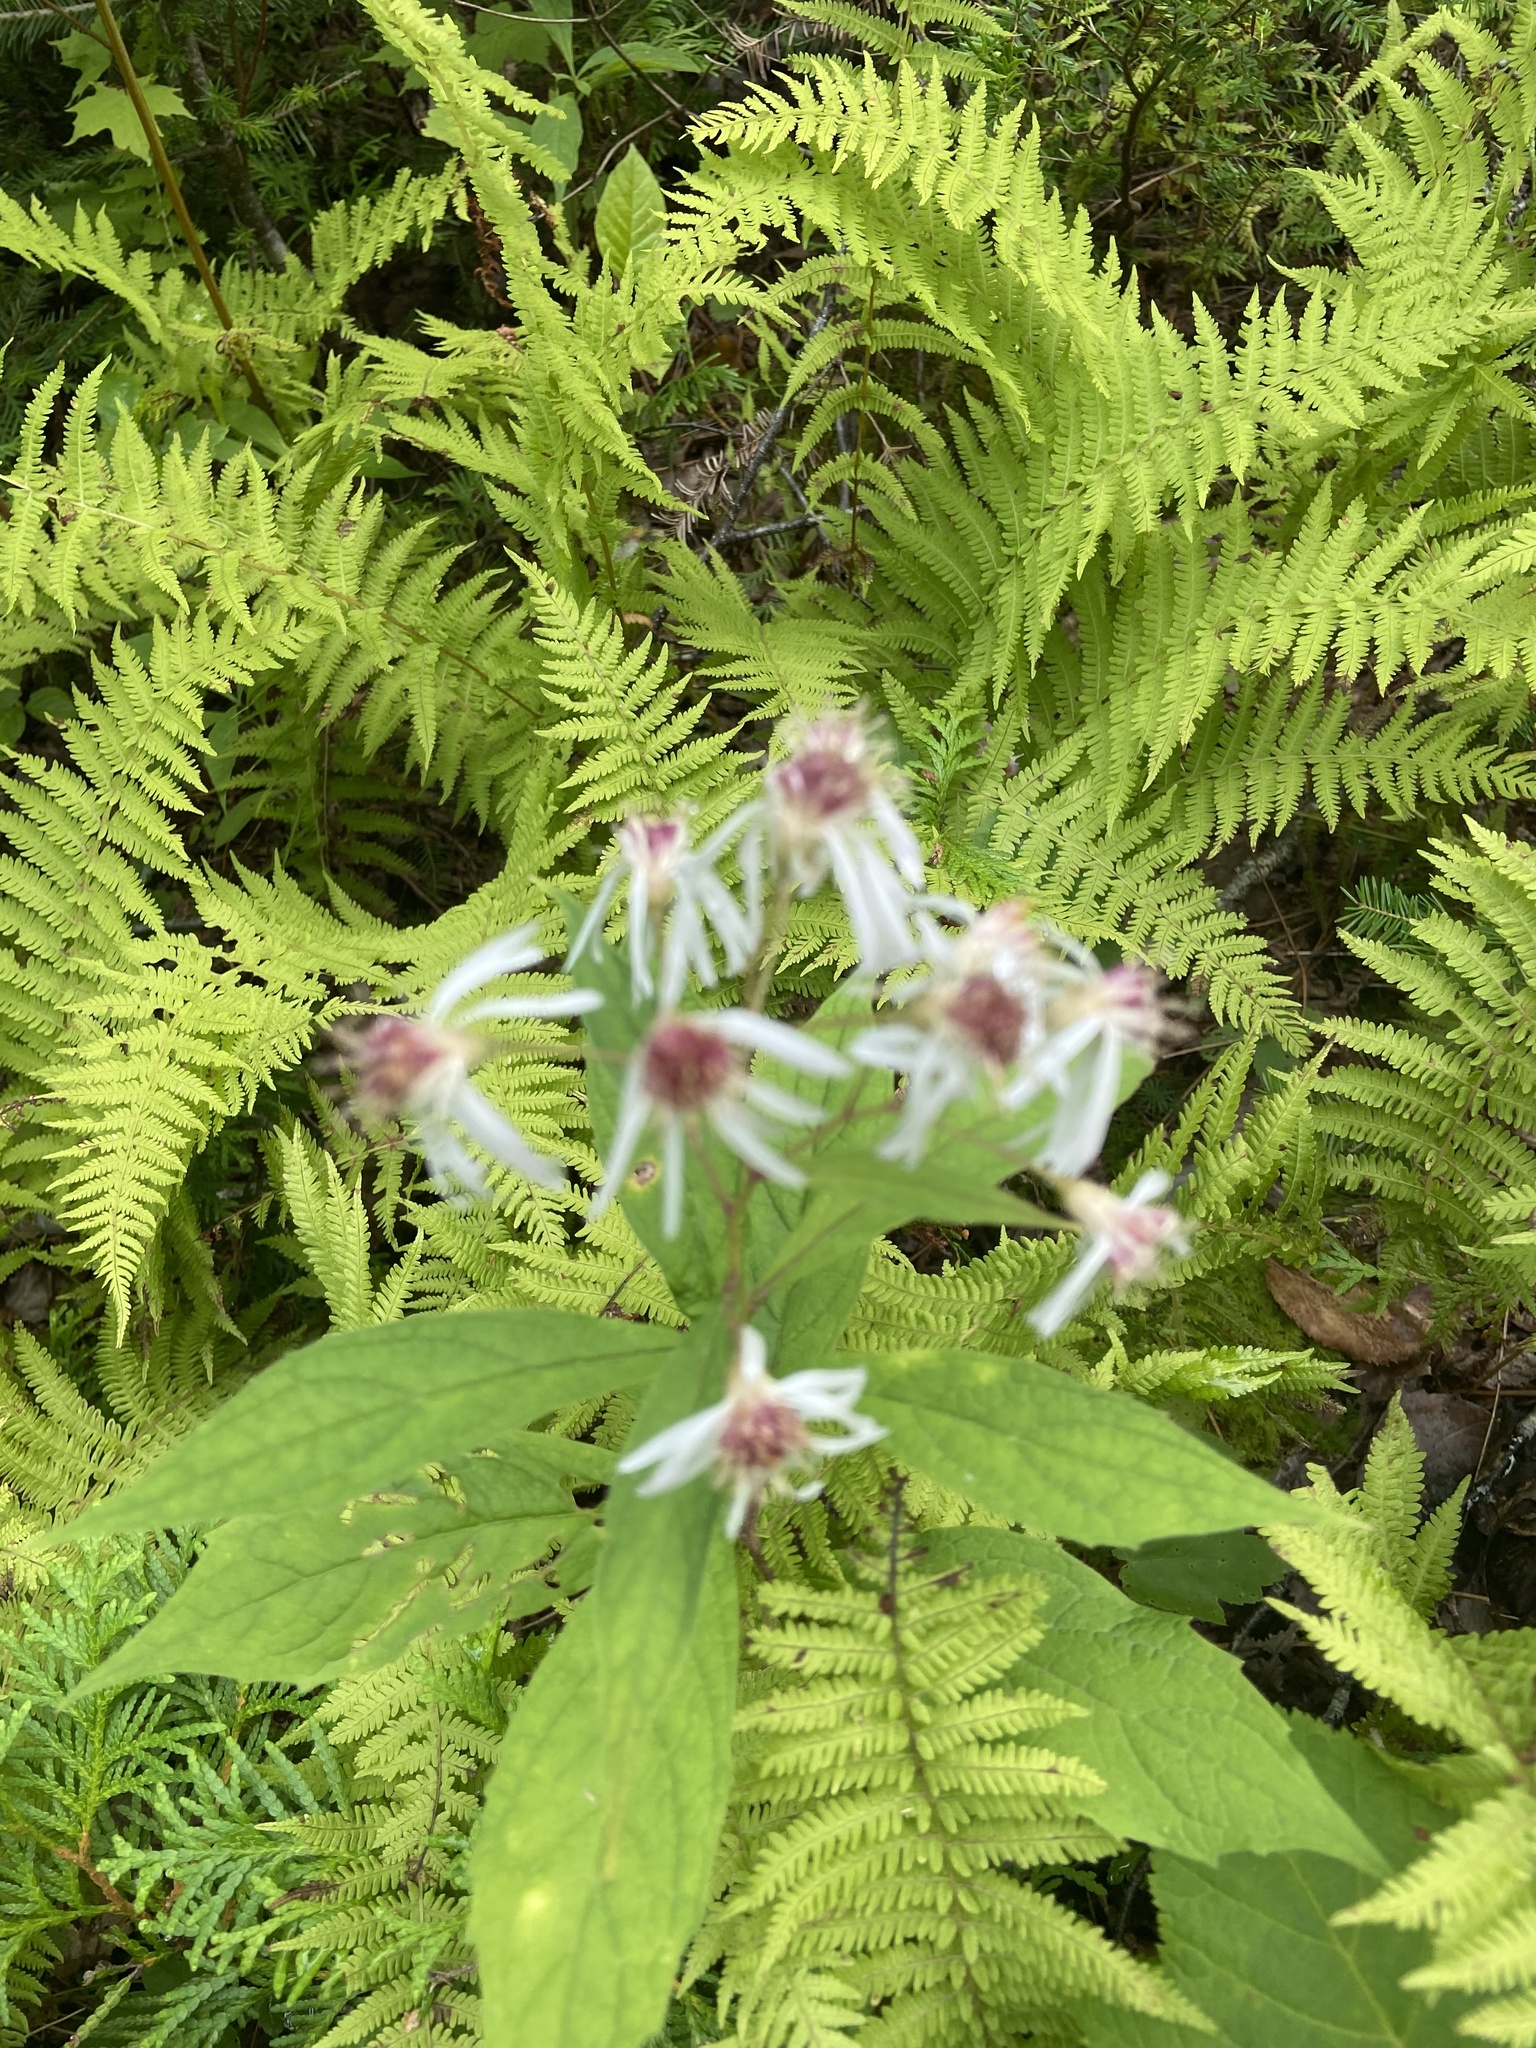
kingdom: Plantae
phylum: Tracheophyta
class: Magnoliopsida
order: Asterales
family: Asteraceae
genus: Oclemena
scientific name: Oclemena acuminata
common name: Mountain aster
